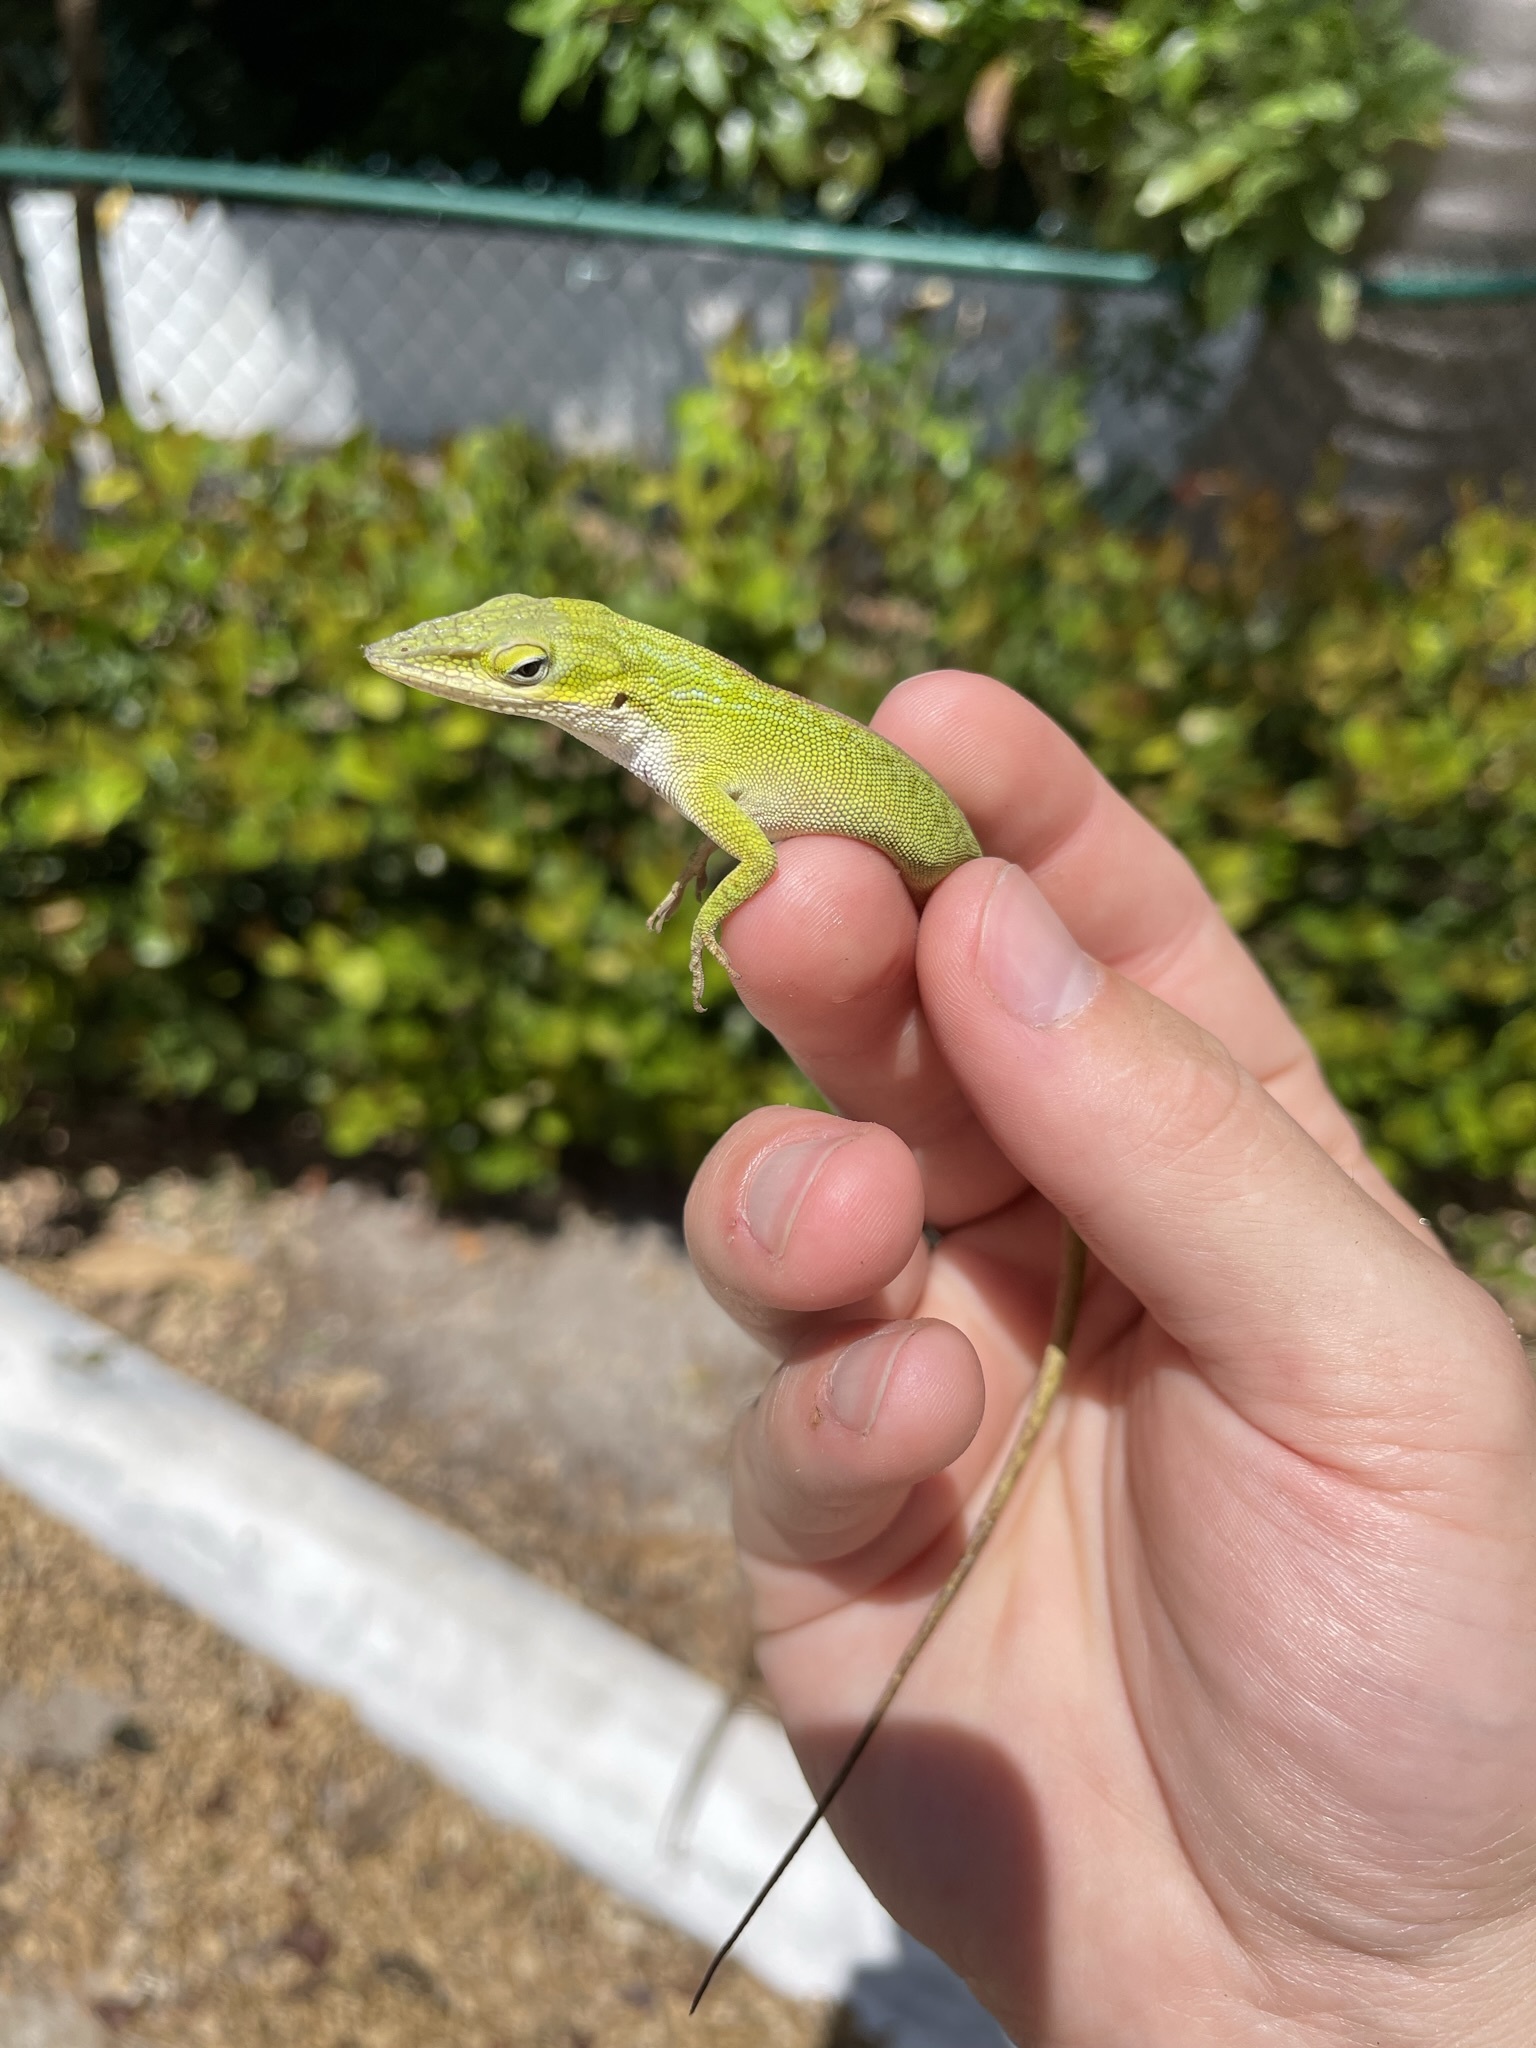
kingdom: Animalia
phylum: Chordata
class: Squamata
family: Dactyloidae
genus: Anolis
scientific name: Anolis carolinensis
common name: Green anole
